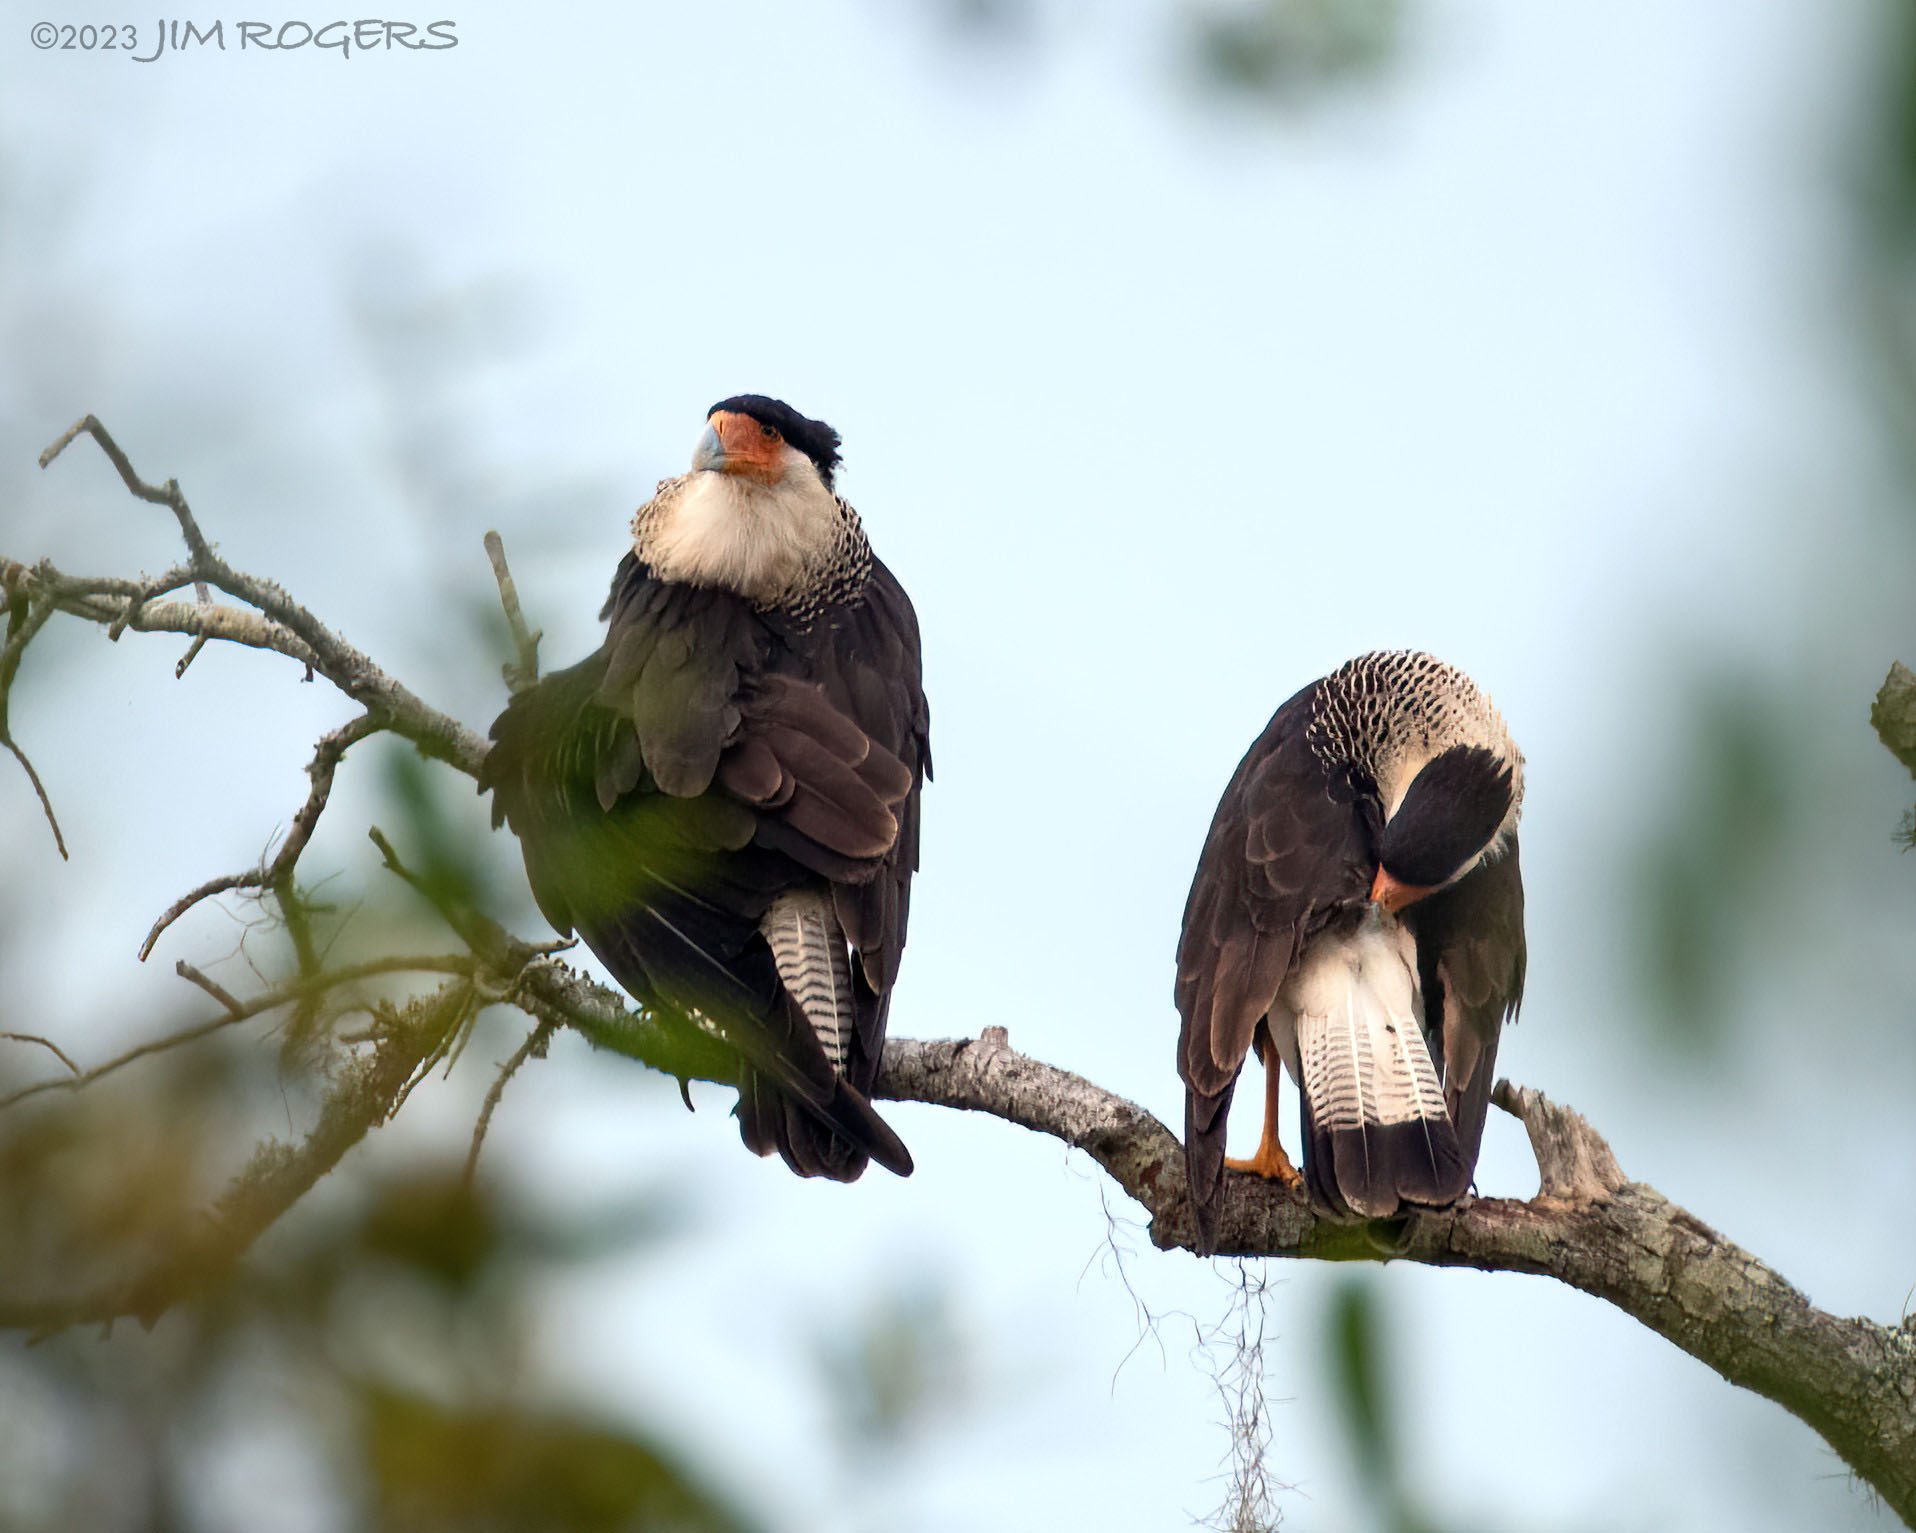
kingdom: Animalia
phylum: Chordata
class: Aves
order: Falconiformes
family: Falconidae
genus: Caracara
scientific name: Caracara plancus
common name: Southern caracara
